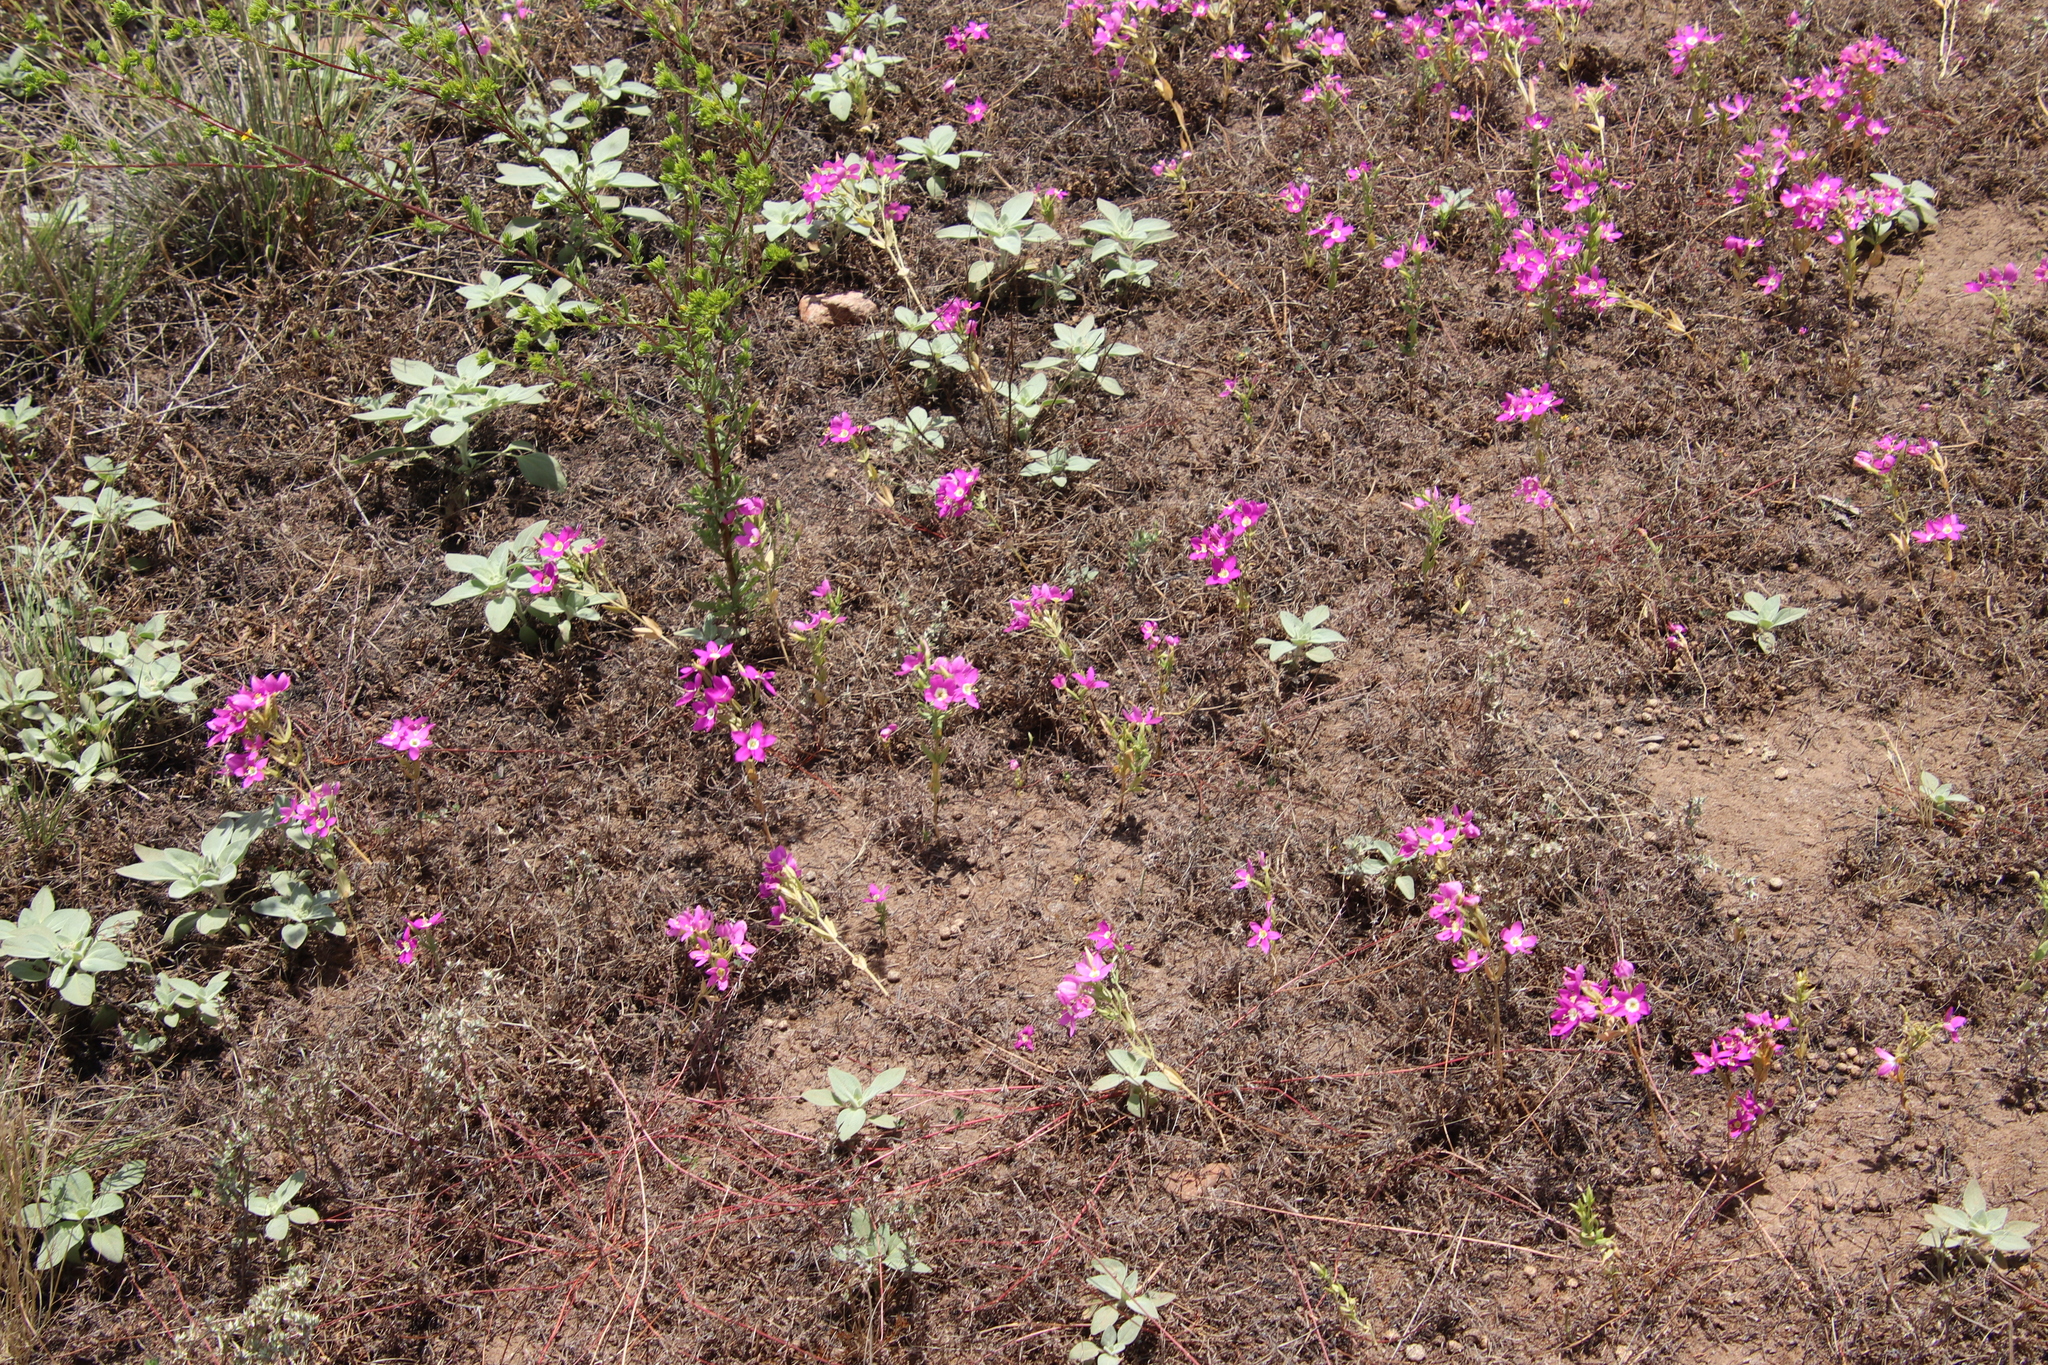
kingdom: Plantae
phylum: Tracheophyta
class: Magnoliopsida
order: Gentianales
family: Gentianaceae
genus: Zeltnera
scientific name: Zeltnera venusta
